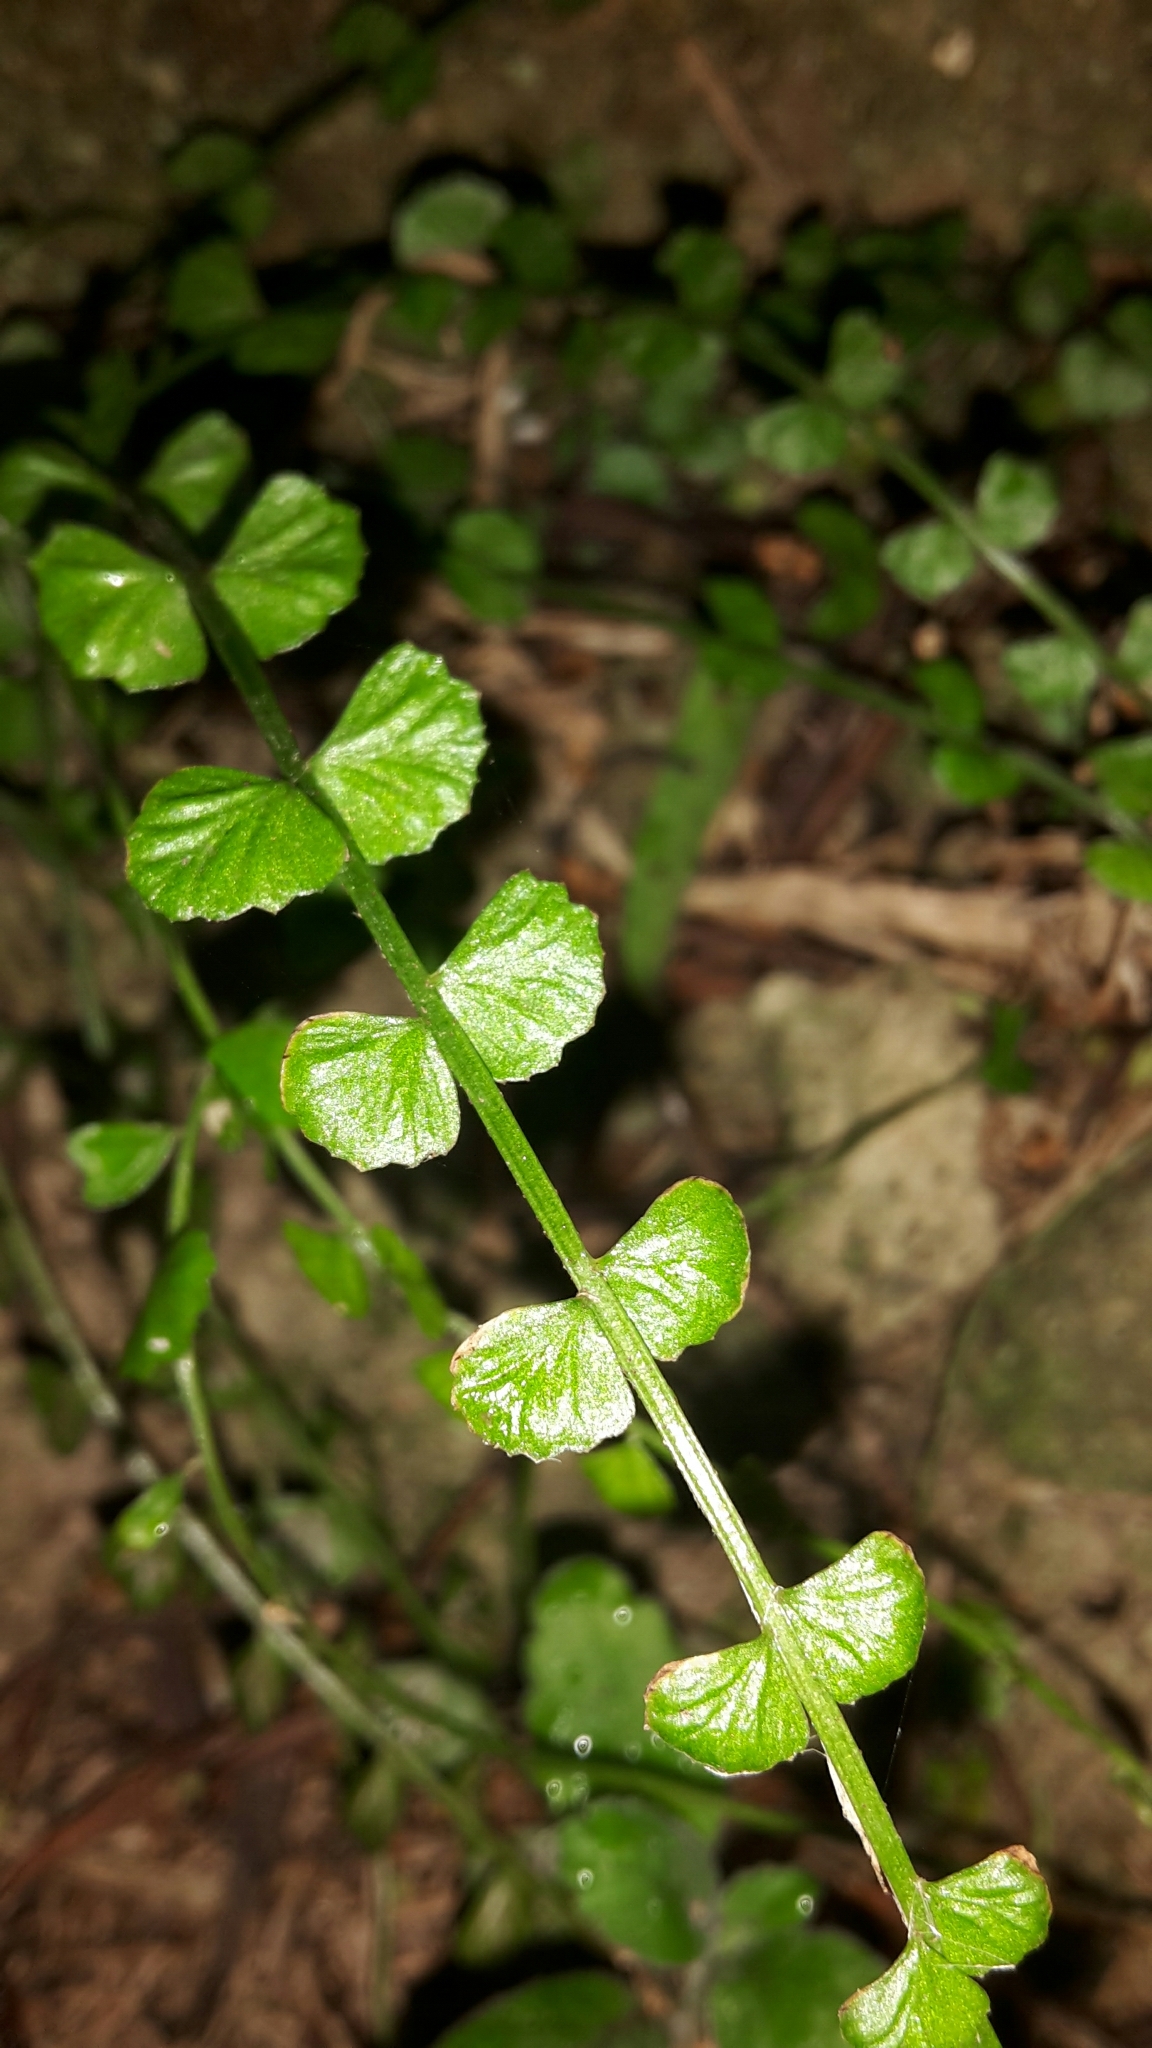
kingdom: Plantae
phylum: Tracheophyta
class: Polypodiopsida
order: Polypodiales
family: Aspleniaceae
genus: Asplenium
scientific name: Asplenium flabellifolium
